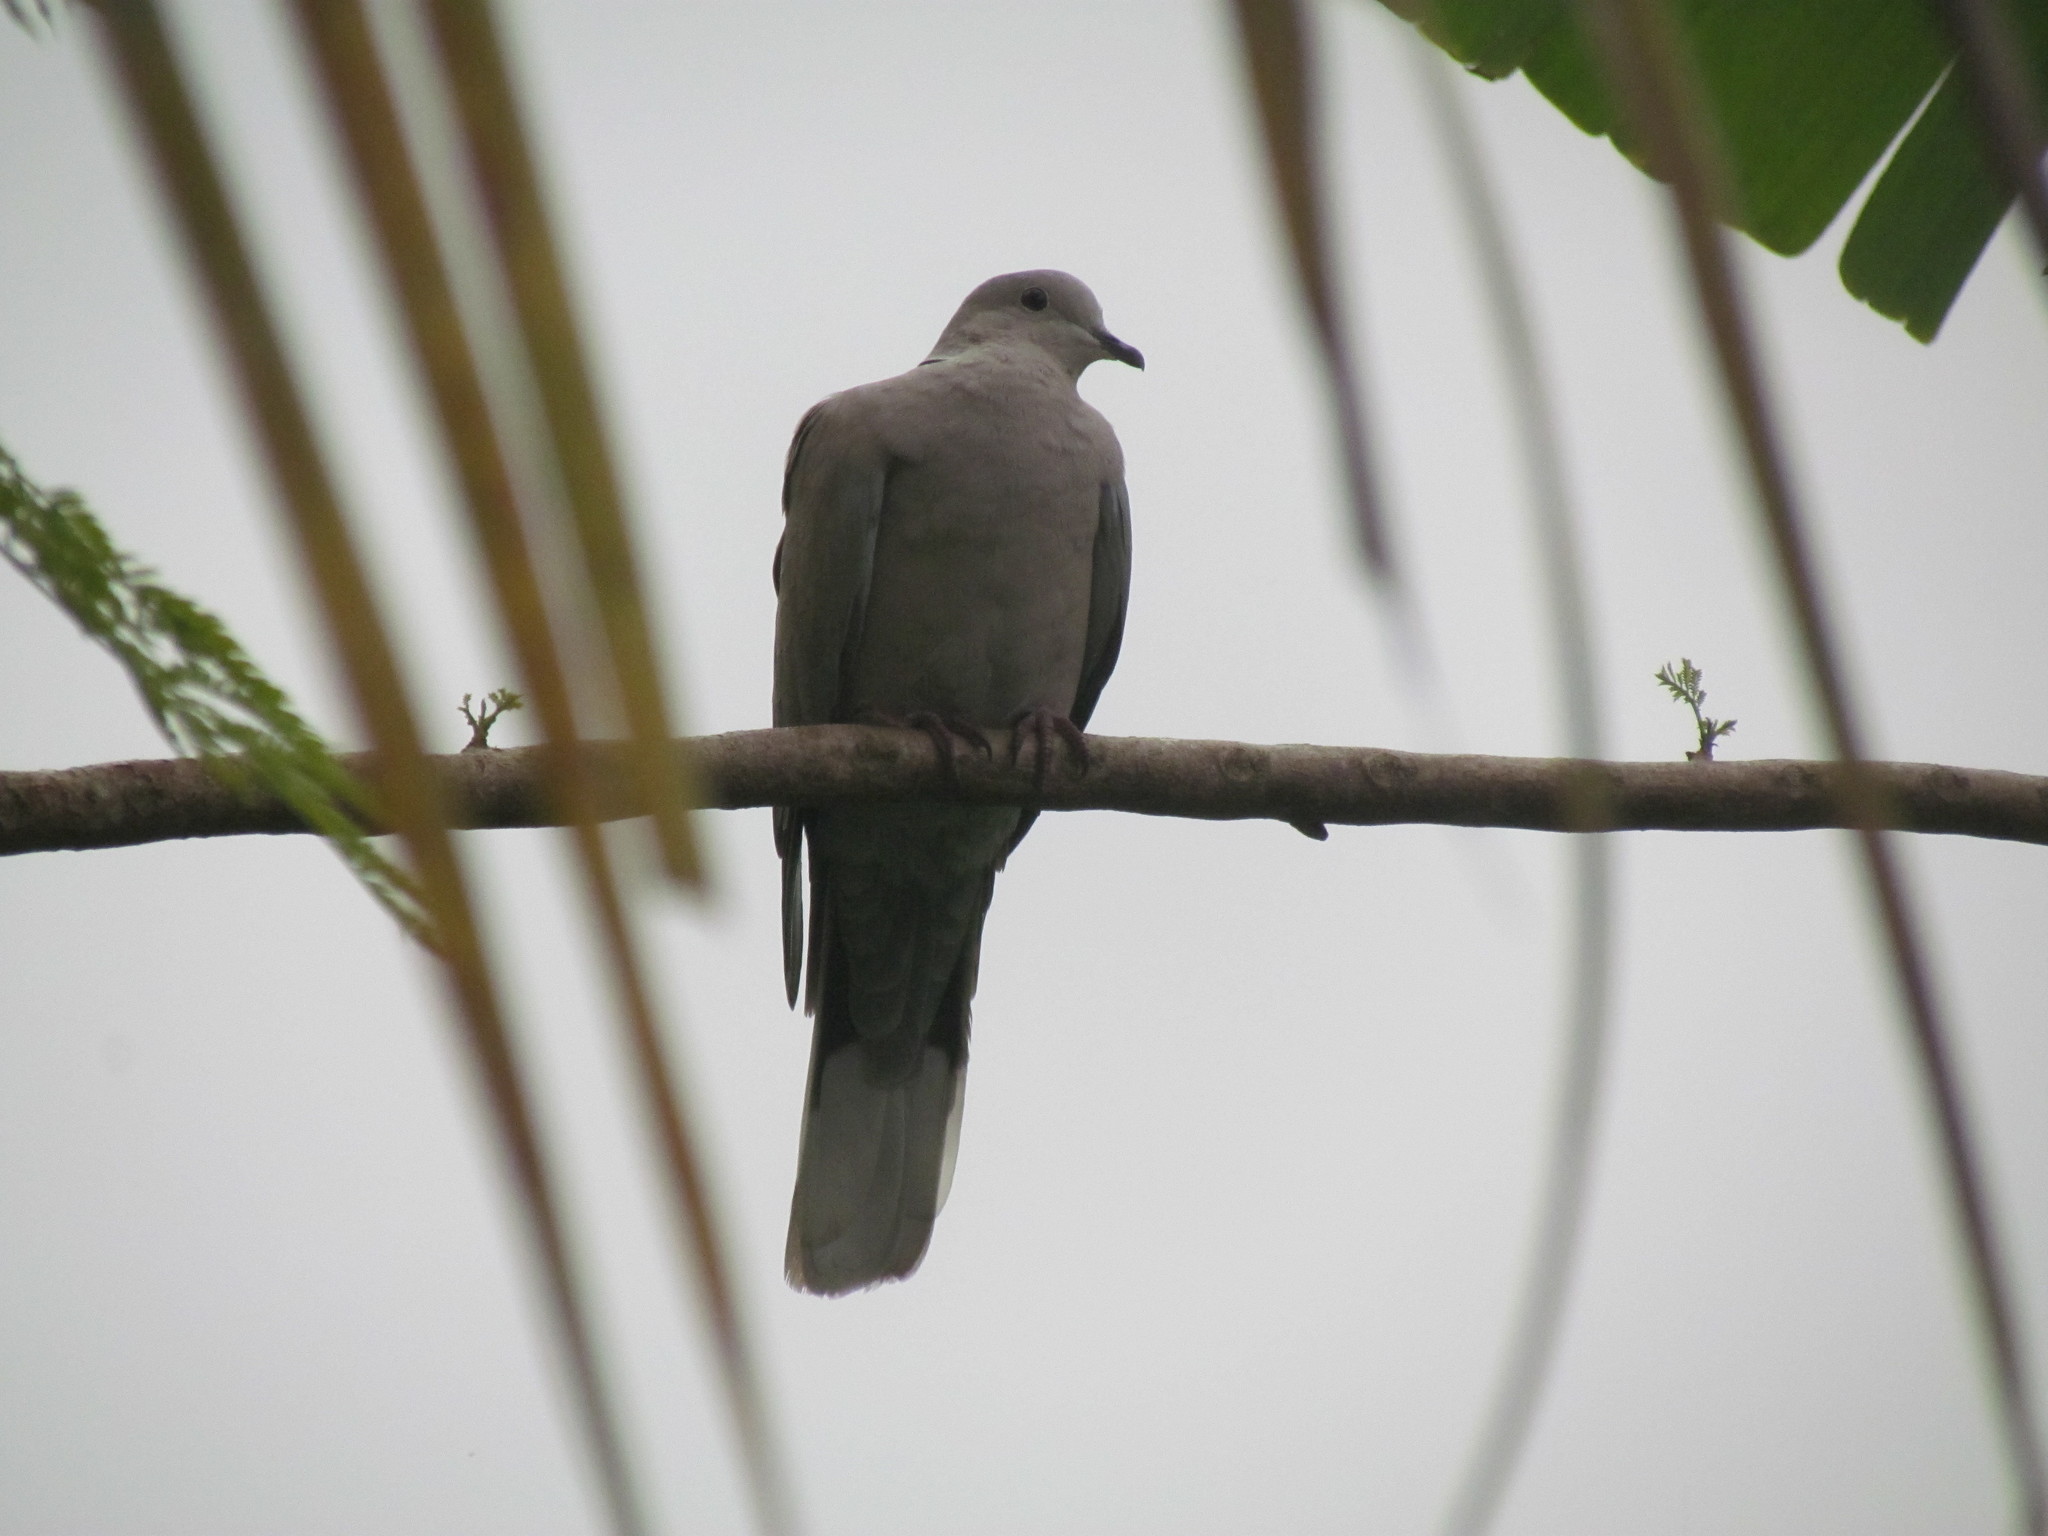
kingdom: Animalia
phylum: Chordata
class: Aves
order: Columbiformes
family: Columbidae
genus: Streptopelia
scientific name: Streptopelia decaocto
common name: Eurasian collared dove
